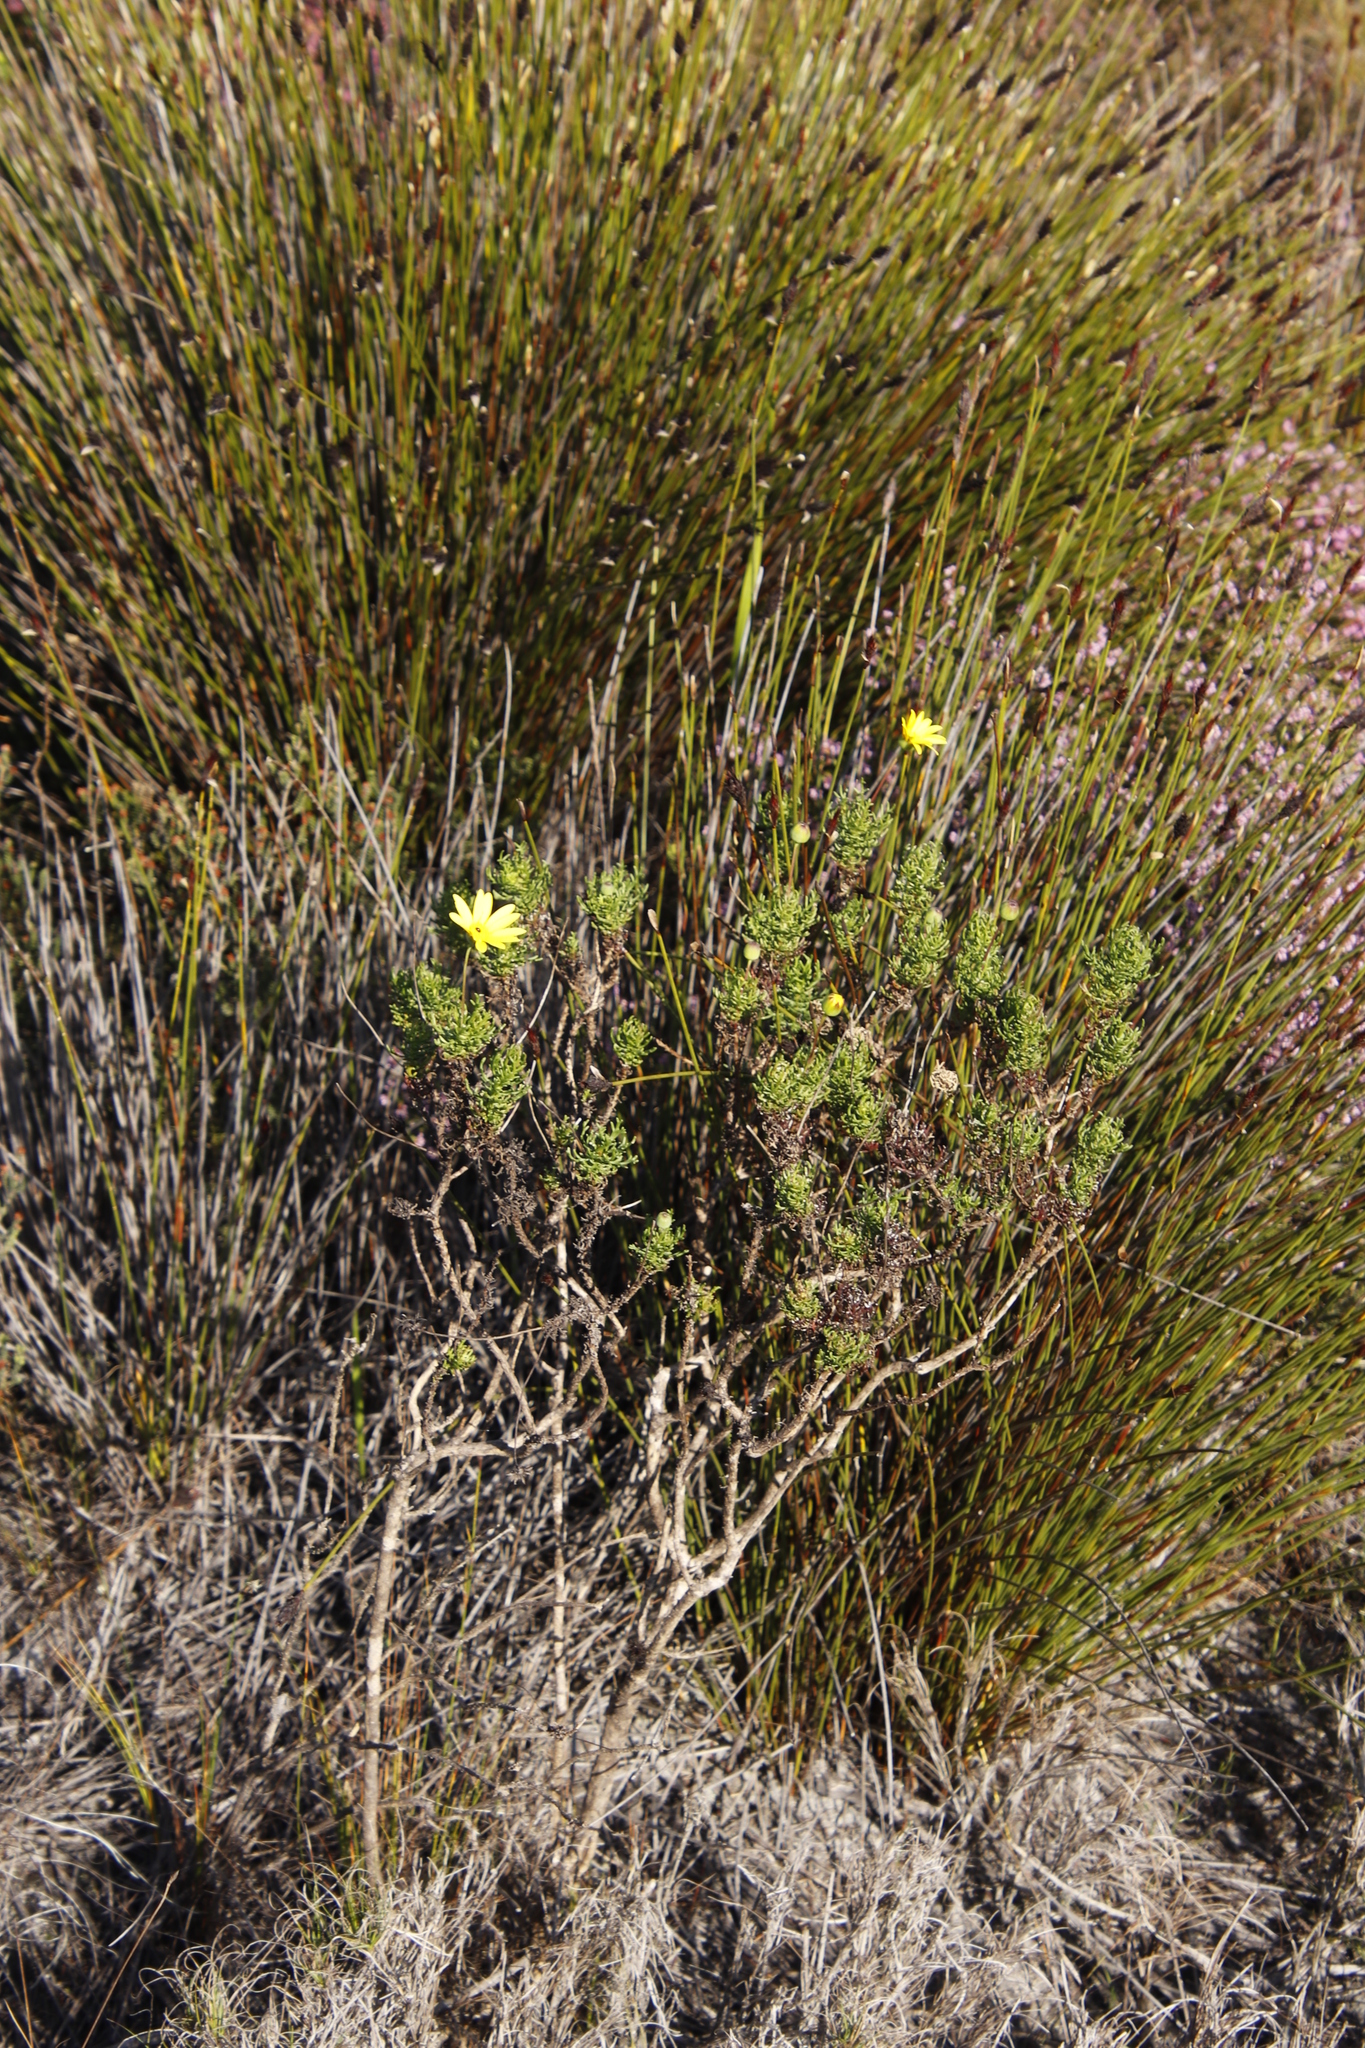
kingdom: Plantae
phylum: Tracheophyta
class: Magnoliopsida
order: Asterales
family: Asteraceae
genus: Euryops
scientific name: Euryops abrotanifolius
